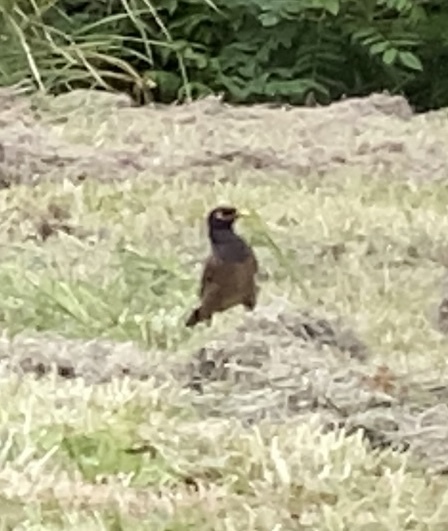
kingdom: Animalia
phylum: Chordata
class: Aves
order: Passeriformes
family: Sturnidae
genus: Acridotheres
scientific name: Acridotheres tristis
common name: Common myna
